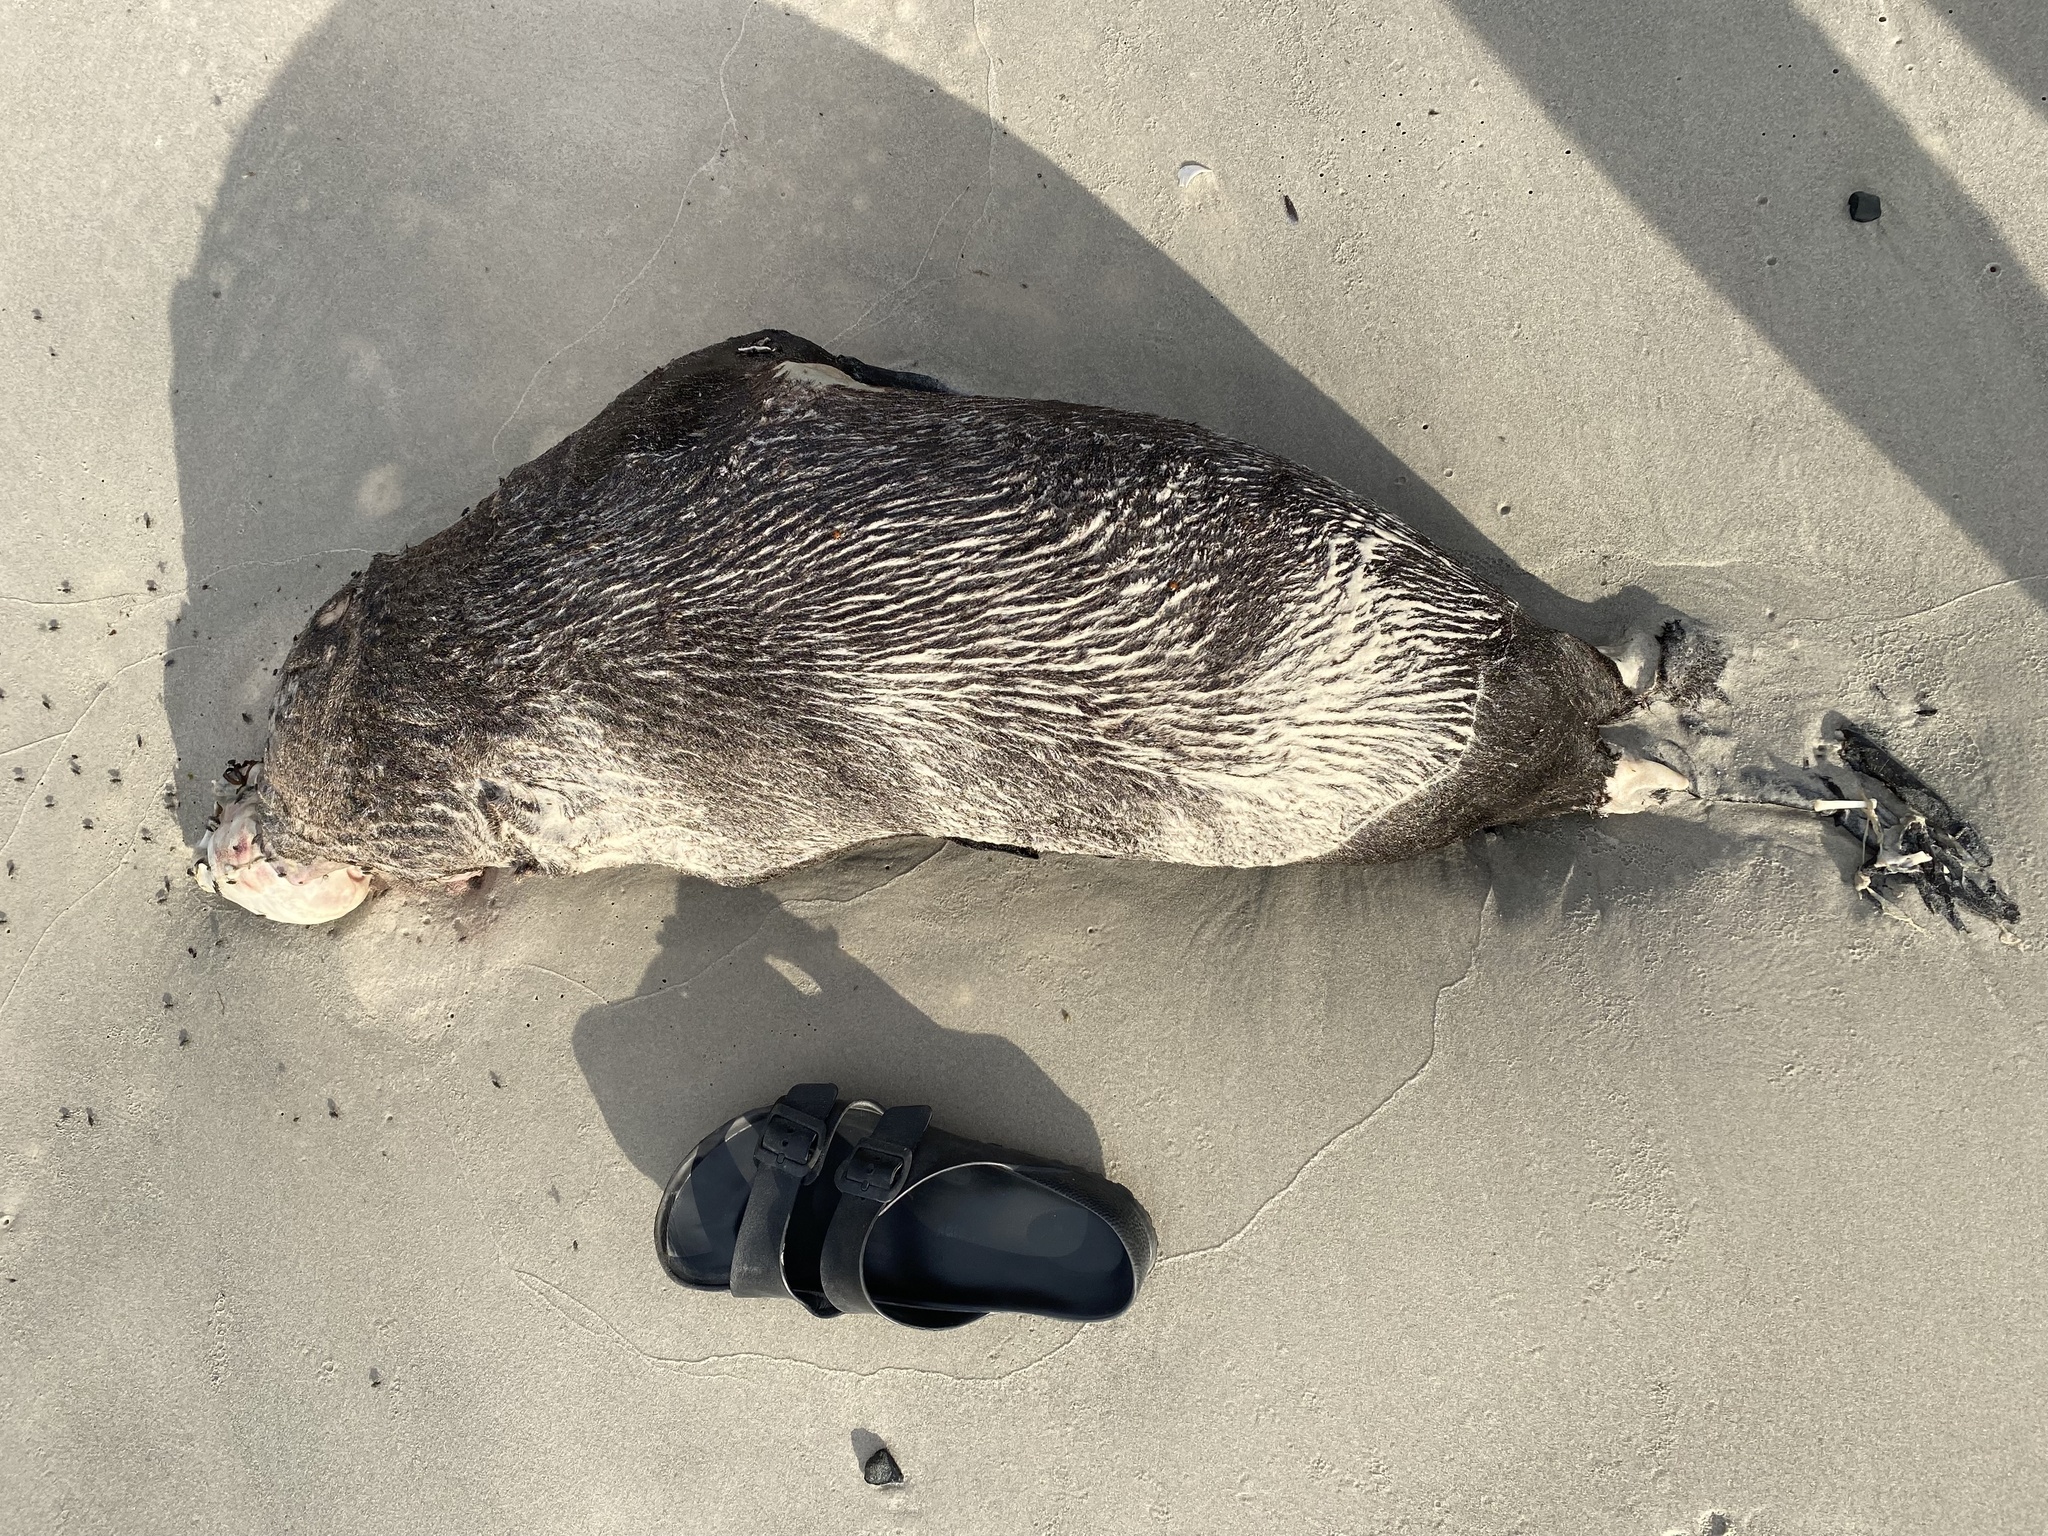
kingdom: Animalia
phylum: Chordata
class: Mammalia
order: Carnivora
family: Otariidae
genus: Arctocephalus
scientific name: Arctocephalus pusillus
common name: Brown fur seal
